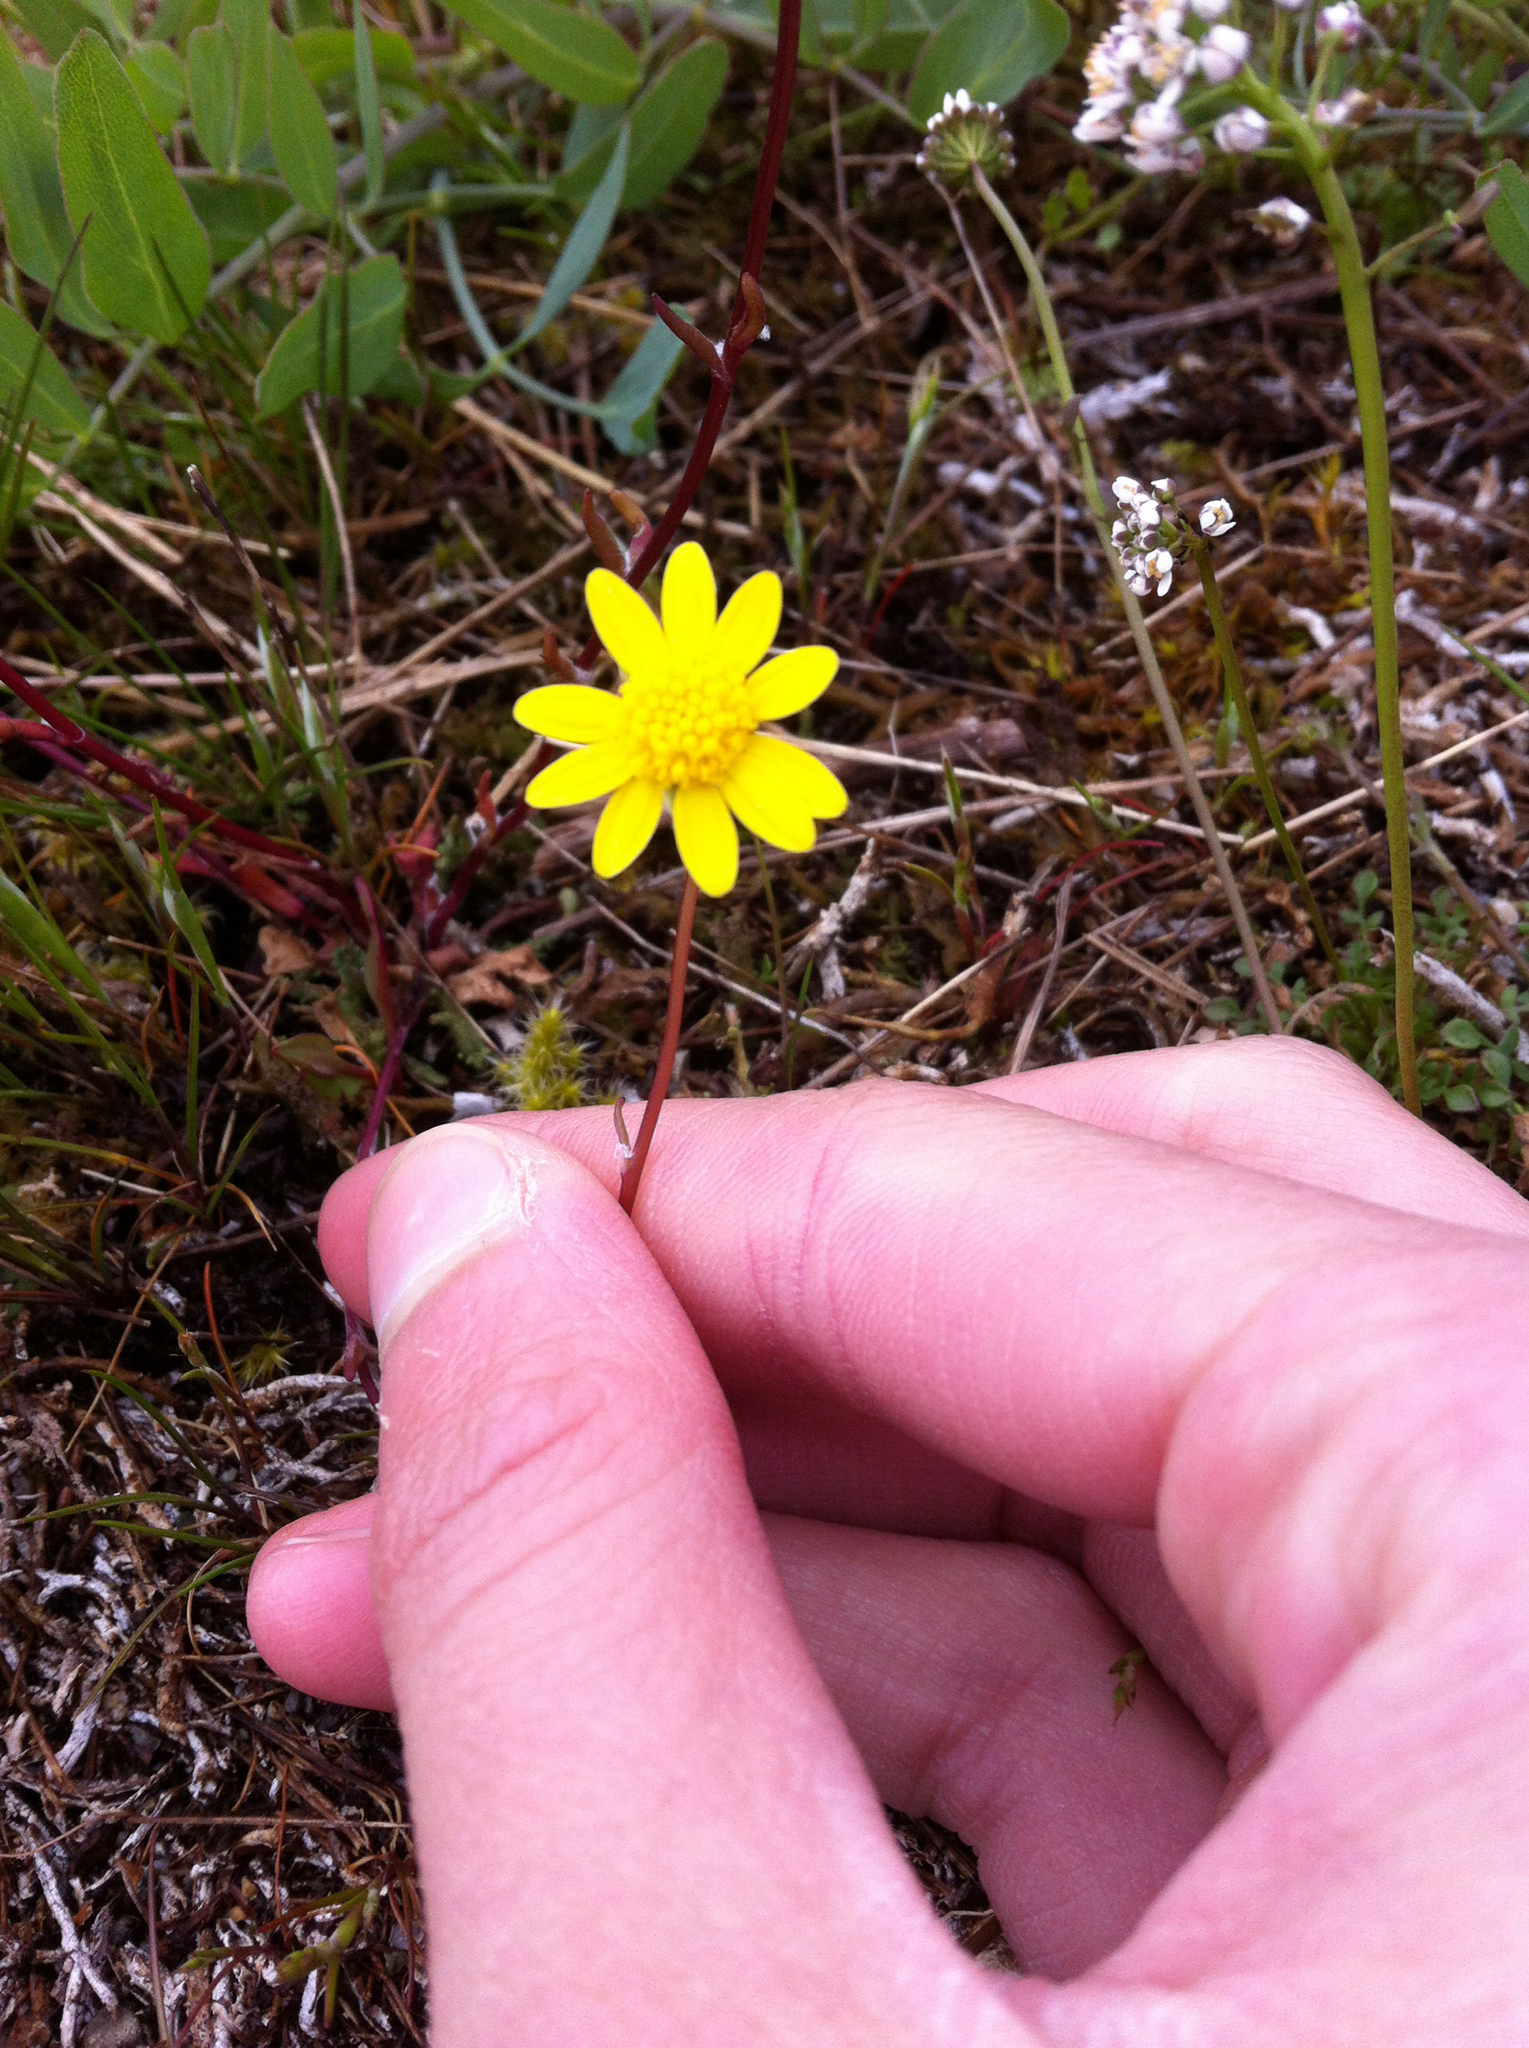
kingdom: Plantae
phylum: Tracheophyta
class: Magnoliopsida
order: Asterales
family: Asteraceae
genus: Crocidium
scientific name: Crocidium multicaule
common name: Common spring gold
